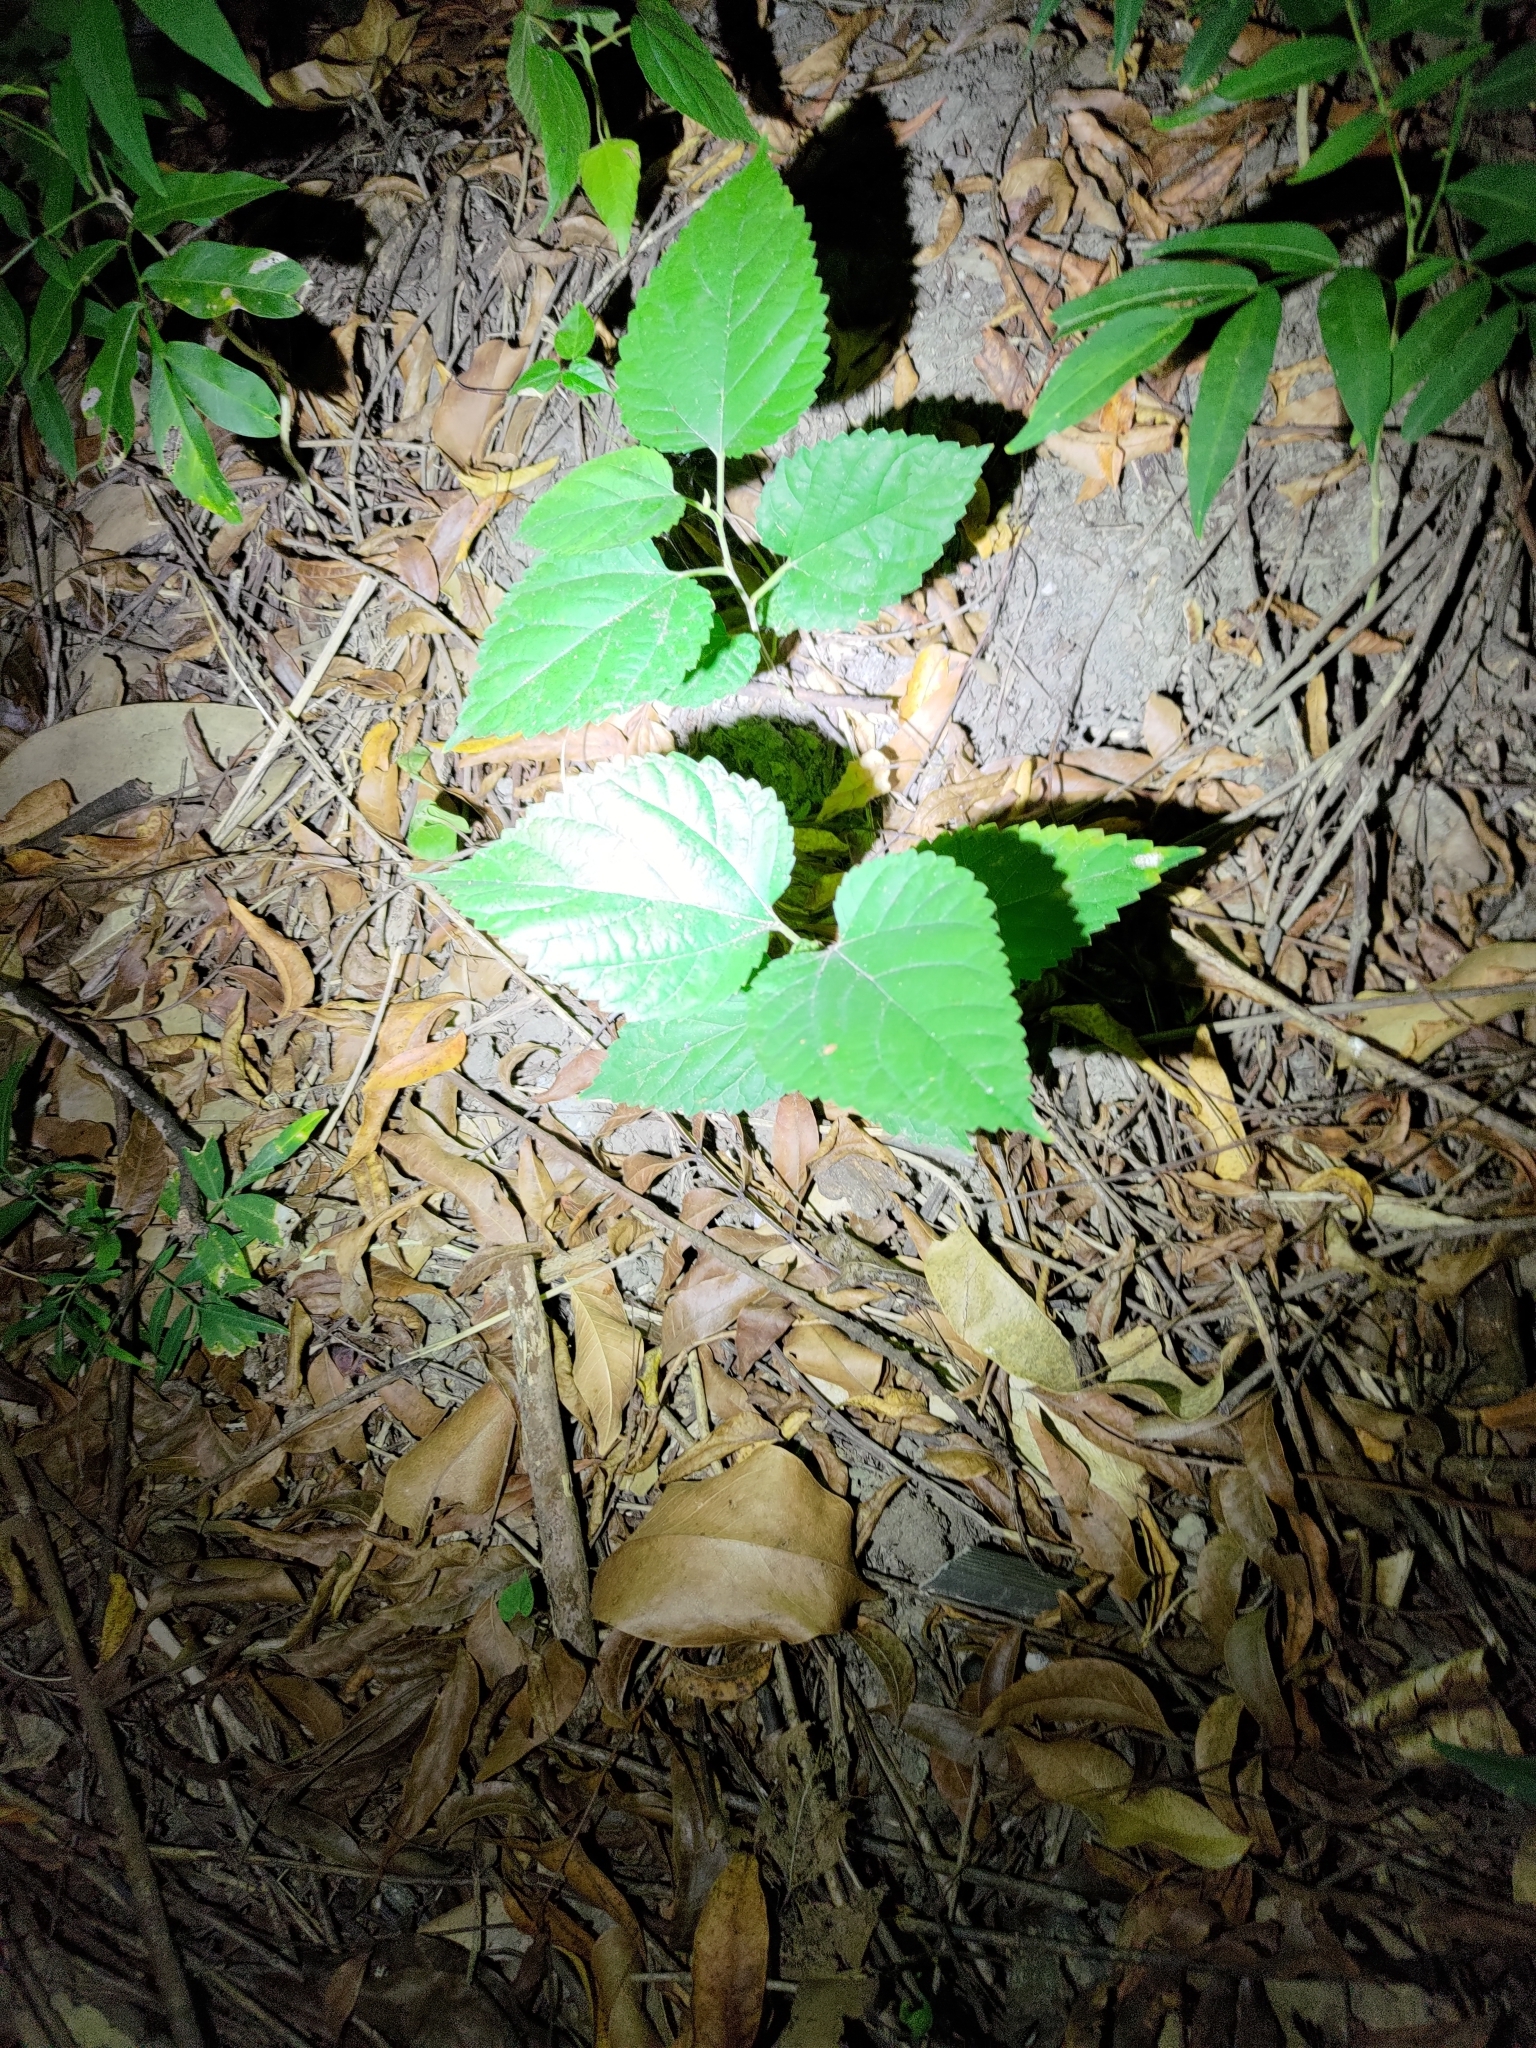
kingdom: Plantae
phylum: Tracheophyta
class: Magnoliopsida
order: Rosales
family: Moraceae
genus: Morus
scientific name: Morus indica
